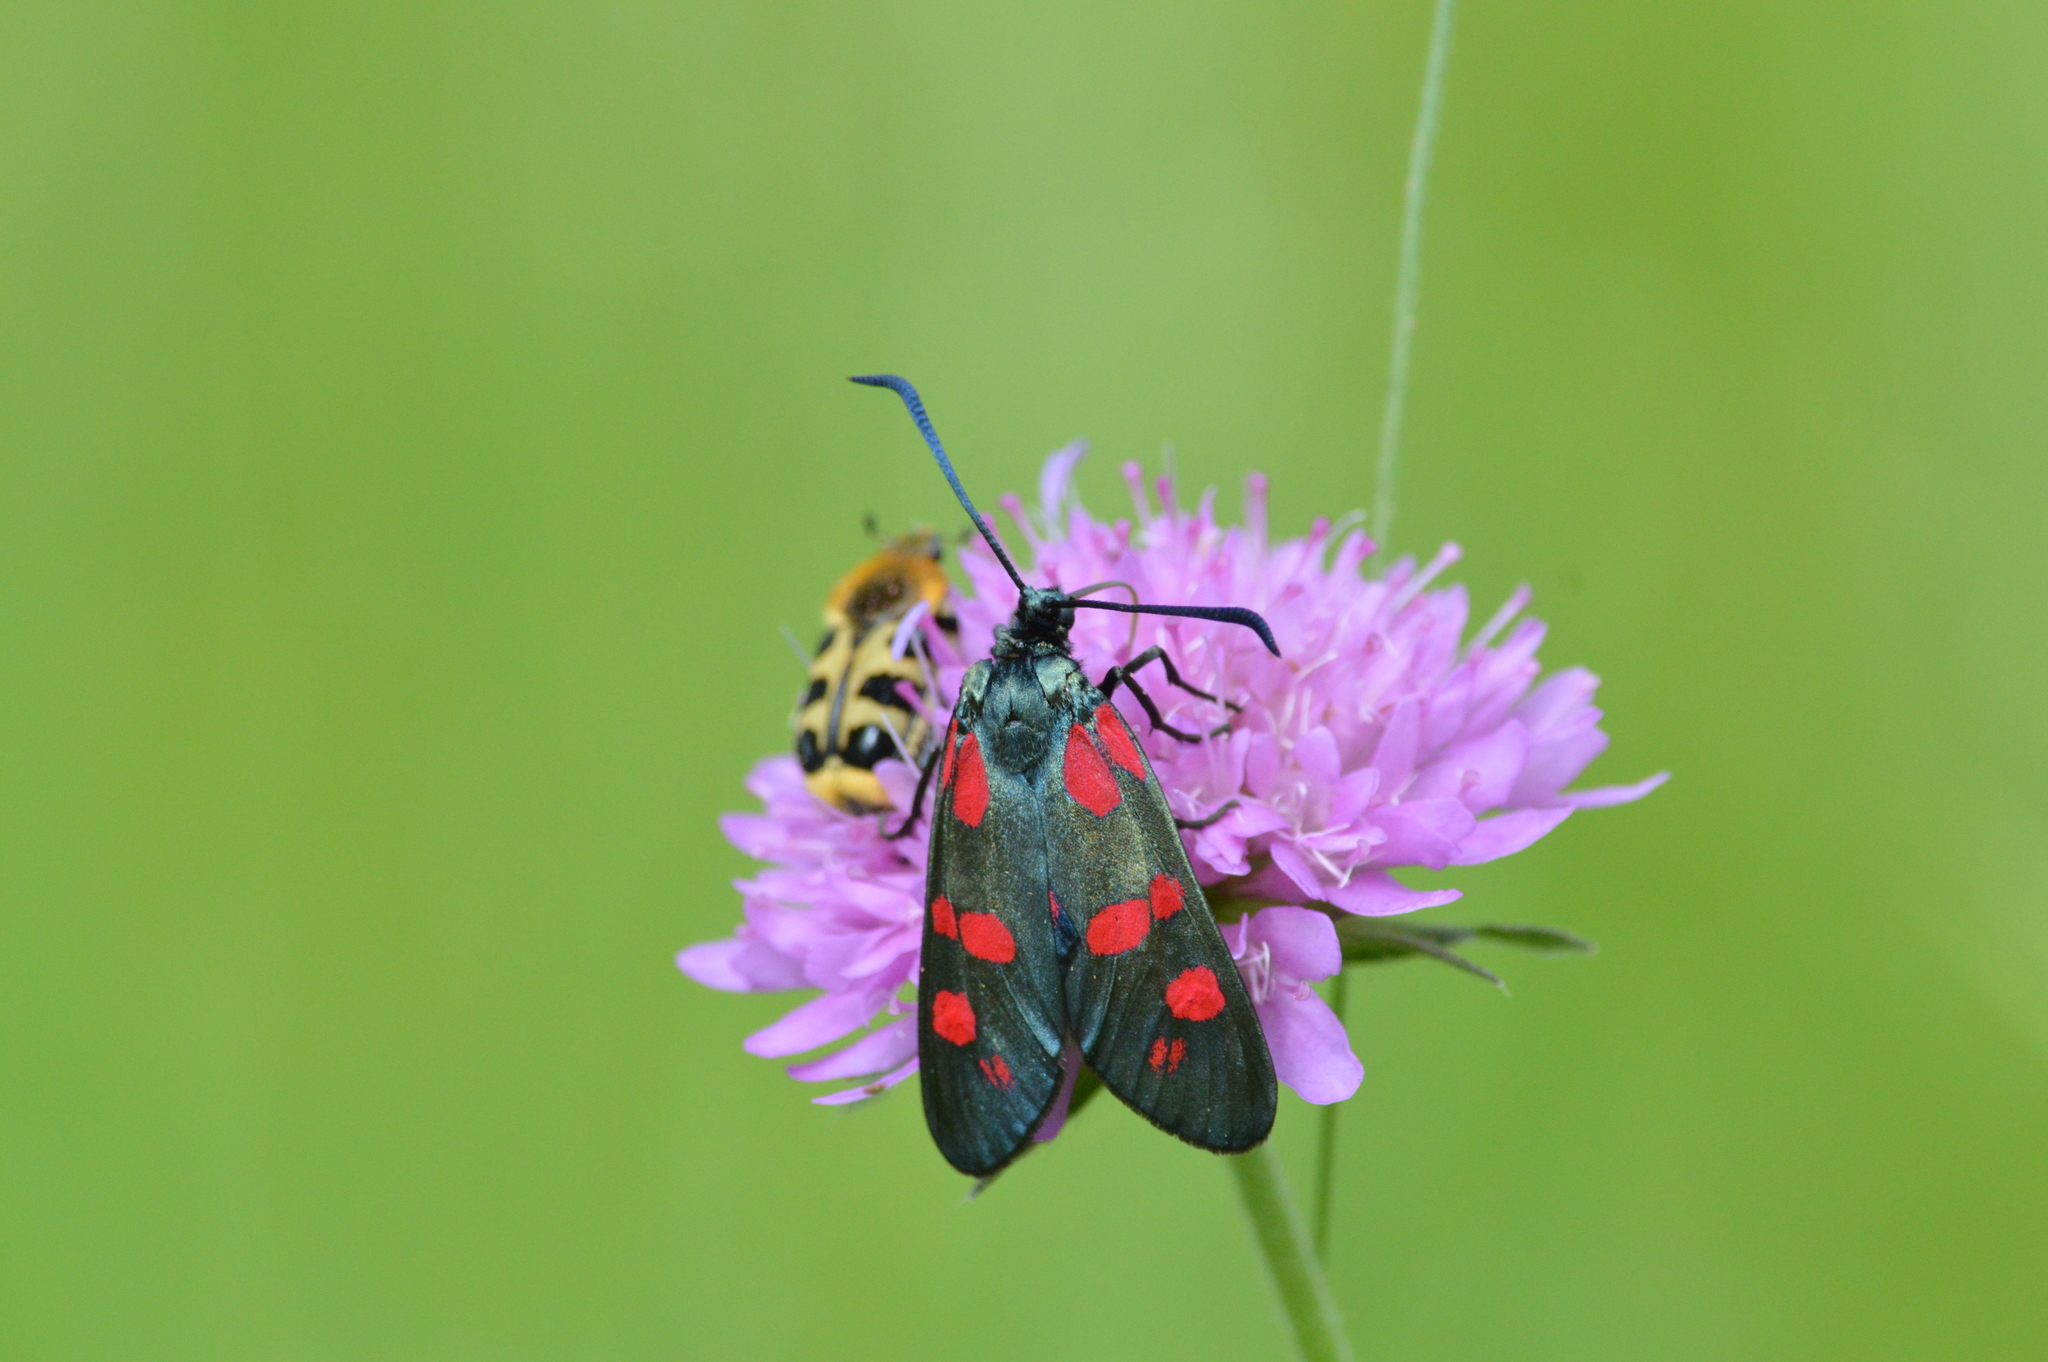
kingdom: Animalia
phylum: Arthropoda
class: Insecta
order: Lepidoptera
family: Zygaenidae
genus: Zygaena
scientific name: Zygaena filipendulae
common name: Six-spot burnet
